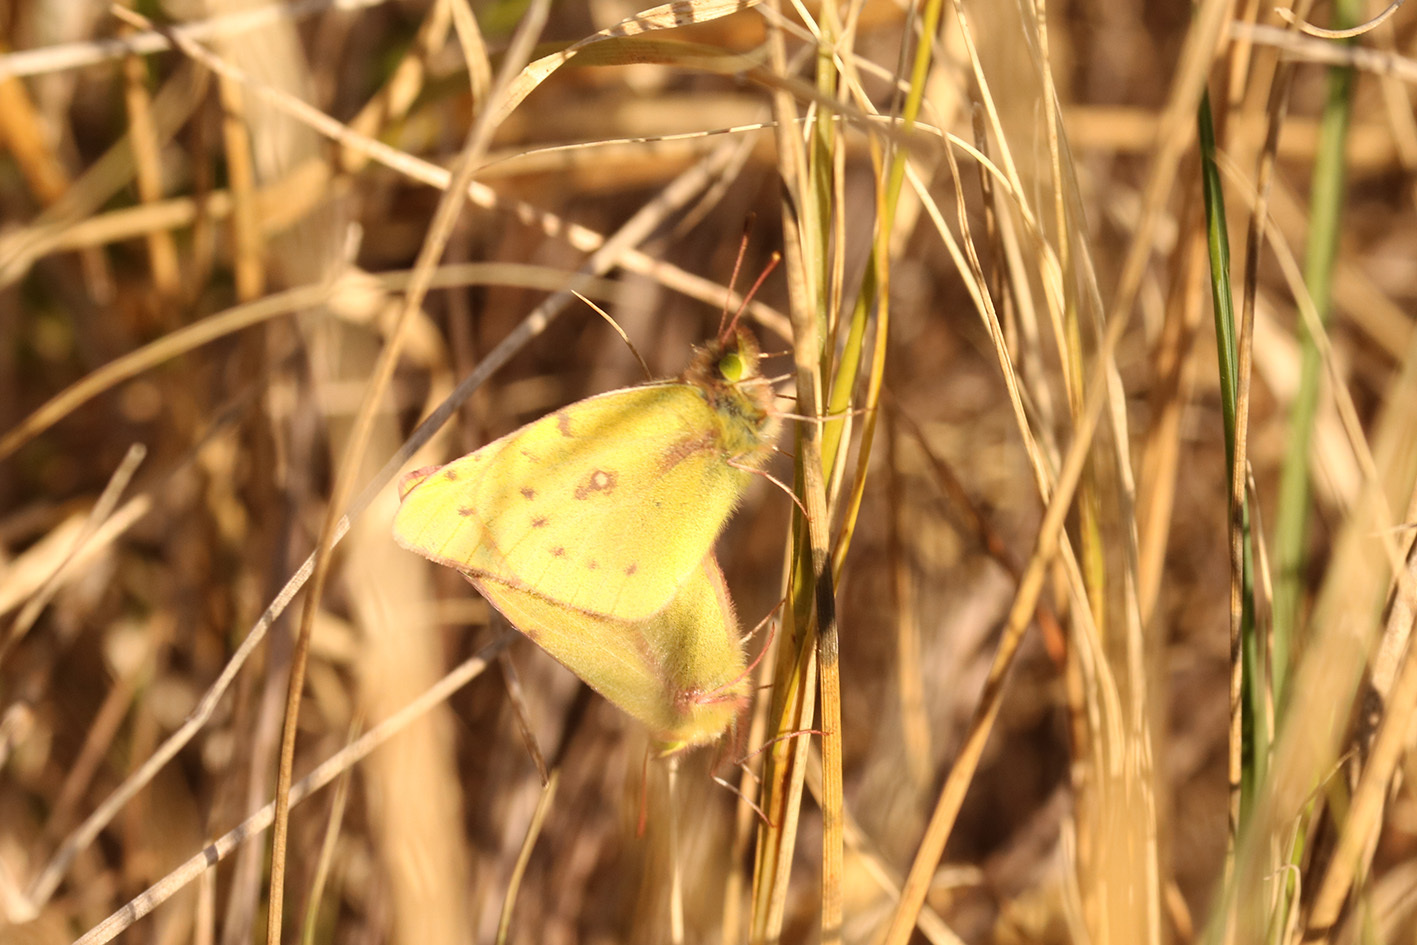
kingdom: Animalia
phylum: Arthropoda
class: Insecta
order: Lepidoptera
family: Pieridae
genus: Colias
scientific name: Colias lesbia
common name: Lesbia clouded yellow
